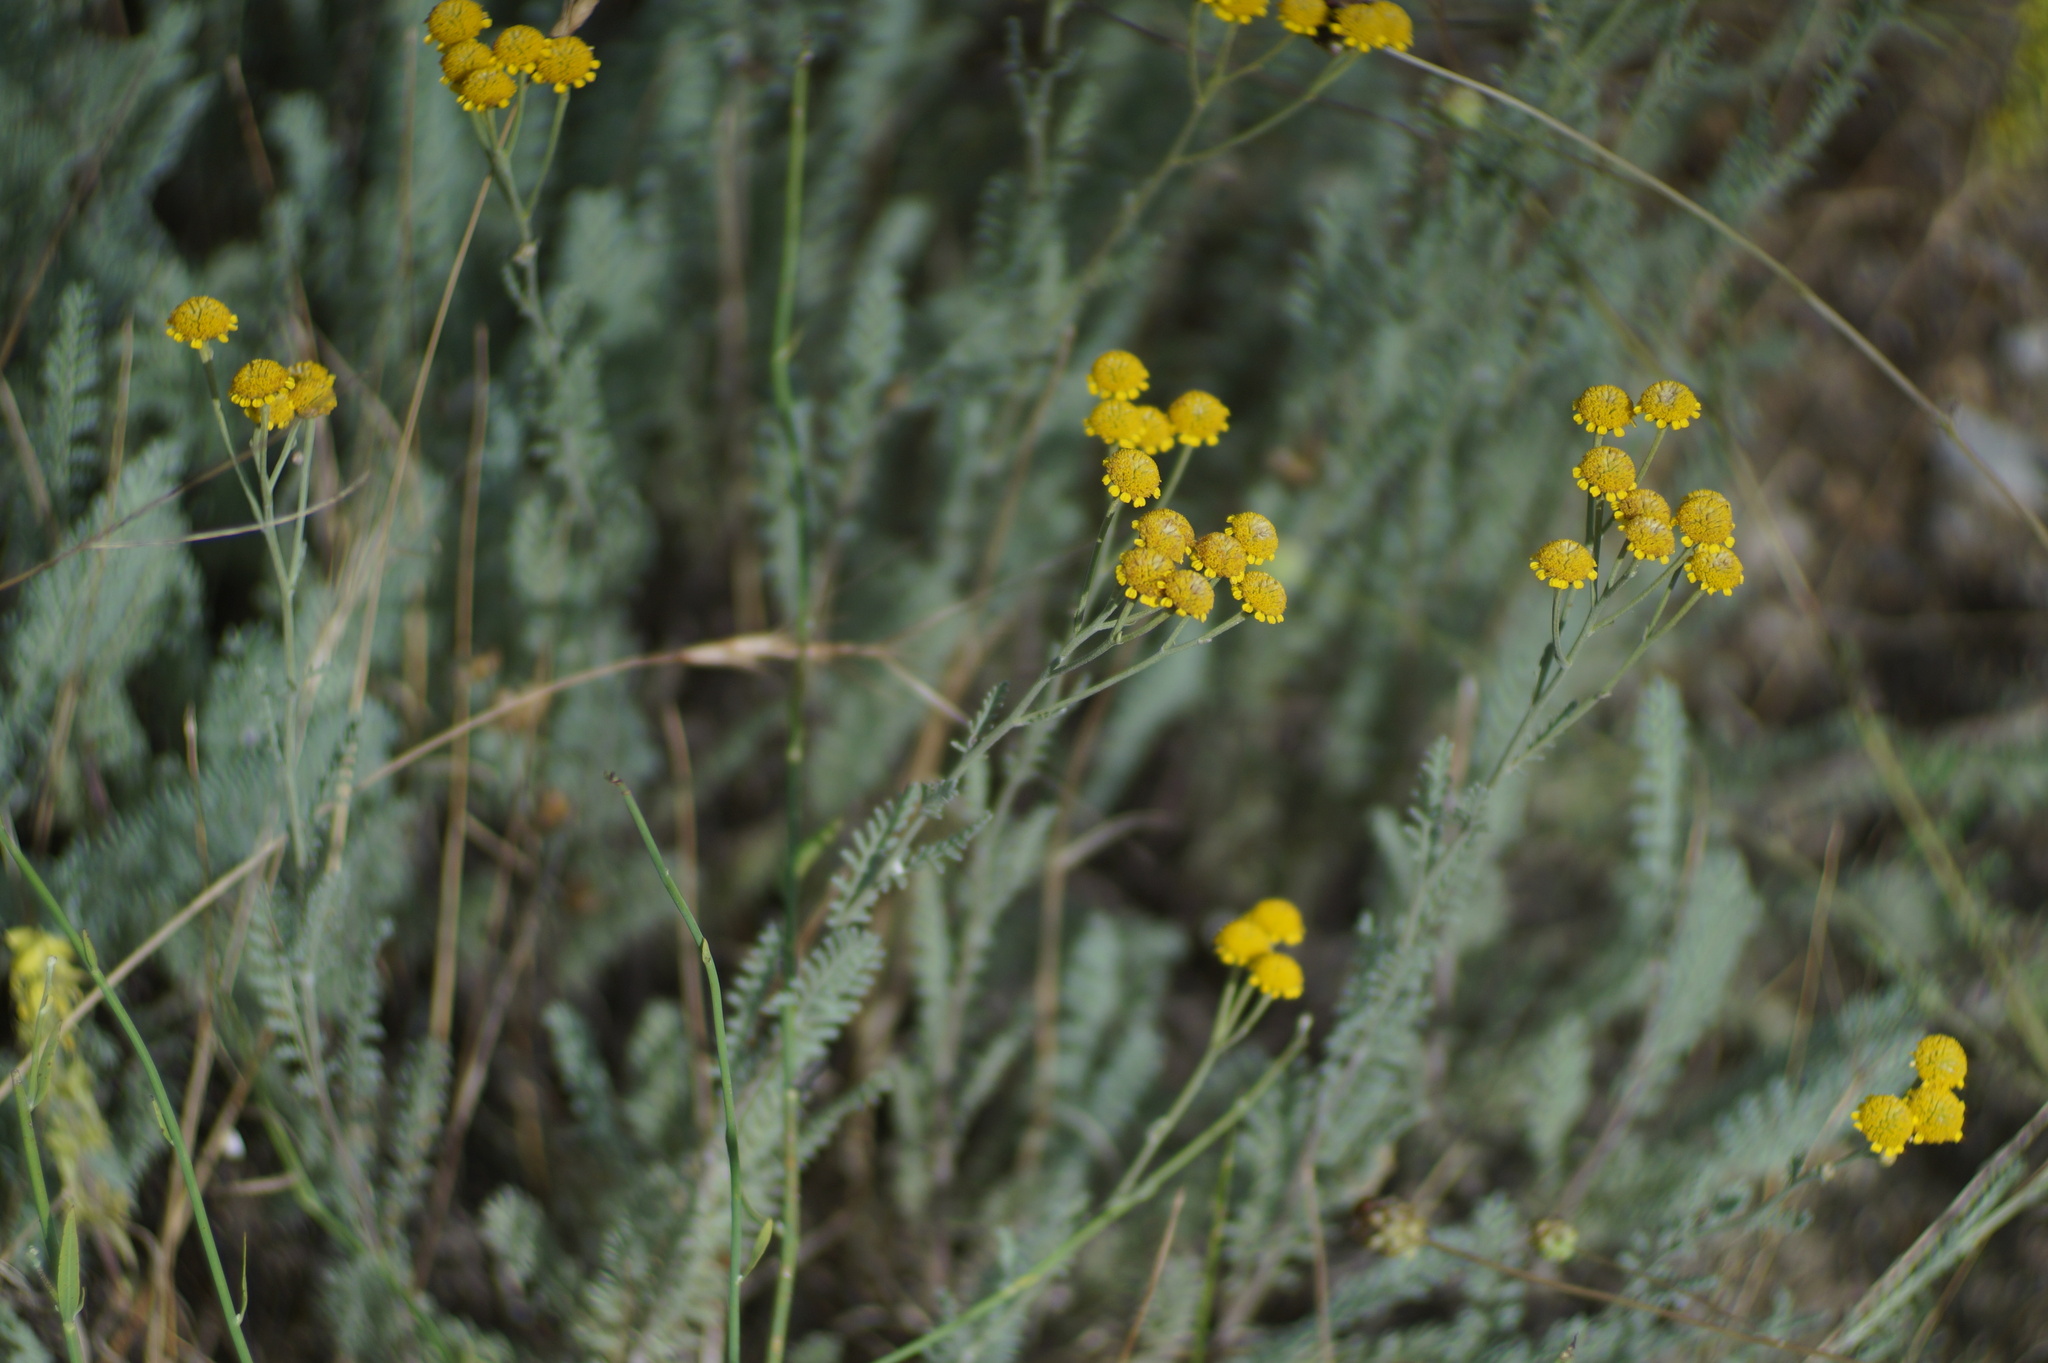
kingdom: Plantae
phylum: Tracheophyta
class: Magnoliopsida
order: Asterales
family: Asteraceae
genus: Tanacetum
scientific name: Tanacetum achilleifolium
